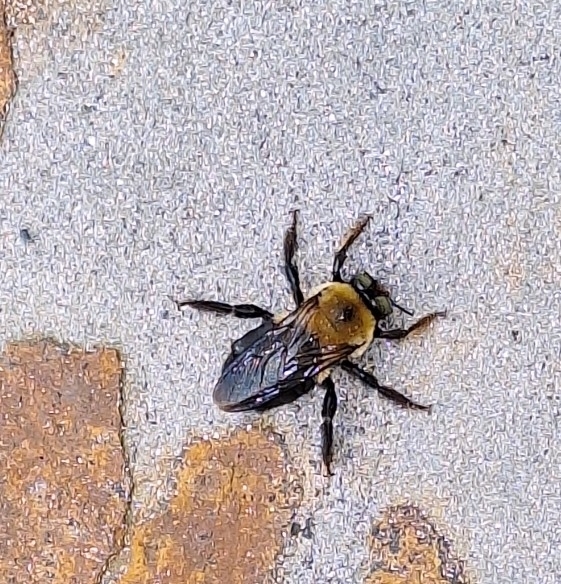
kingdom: Animalia
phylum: Arthropoda
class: Insecta
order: Hymenoptera
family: Apidae
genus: Xylocopa
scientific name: Xylocopa virginica
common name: Carpenter bee
